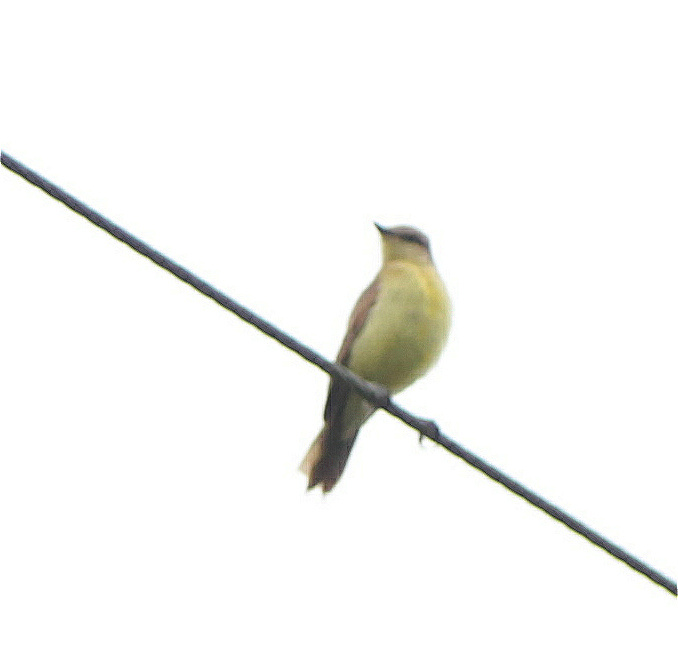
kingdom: Animalia
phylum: Chordata
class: Aves
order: Passeriformes
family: Tyrannidae
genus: Machetornis
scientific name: Machetornis rixosa
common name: Cattle tyrant
